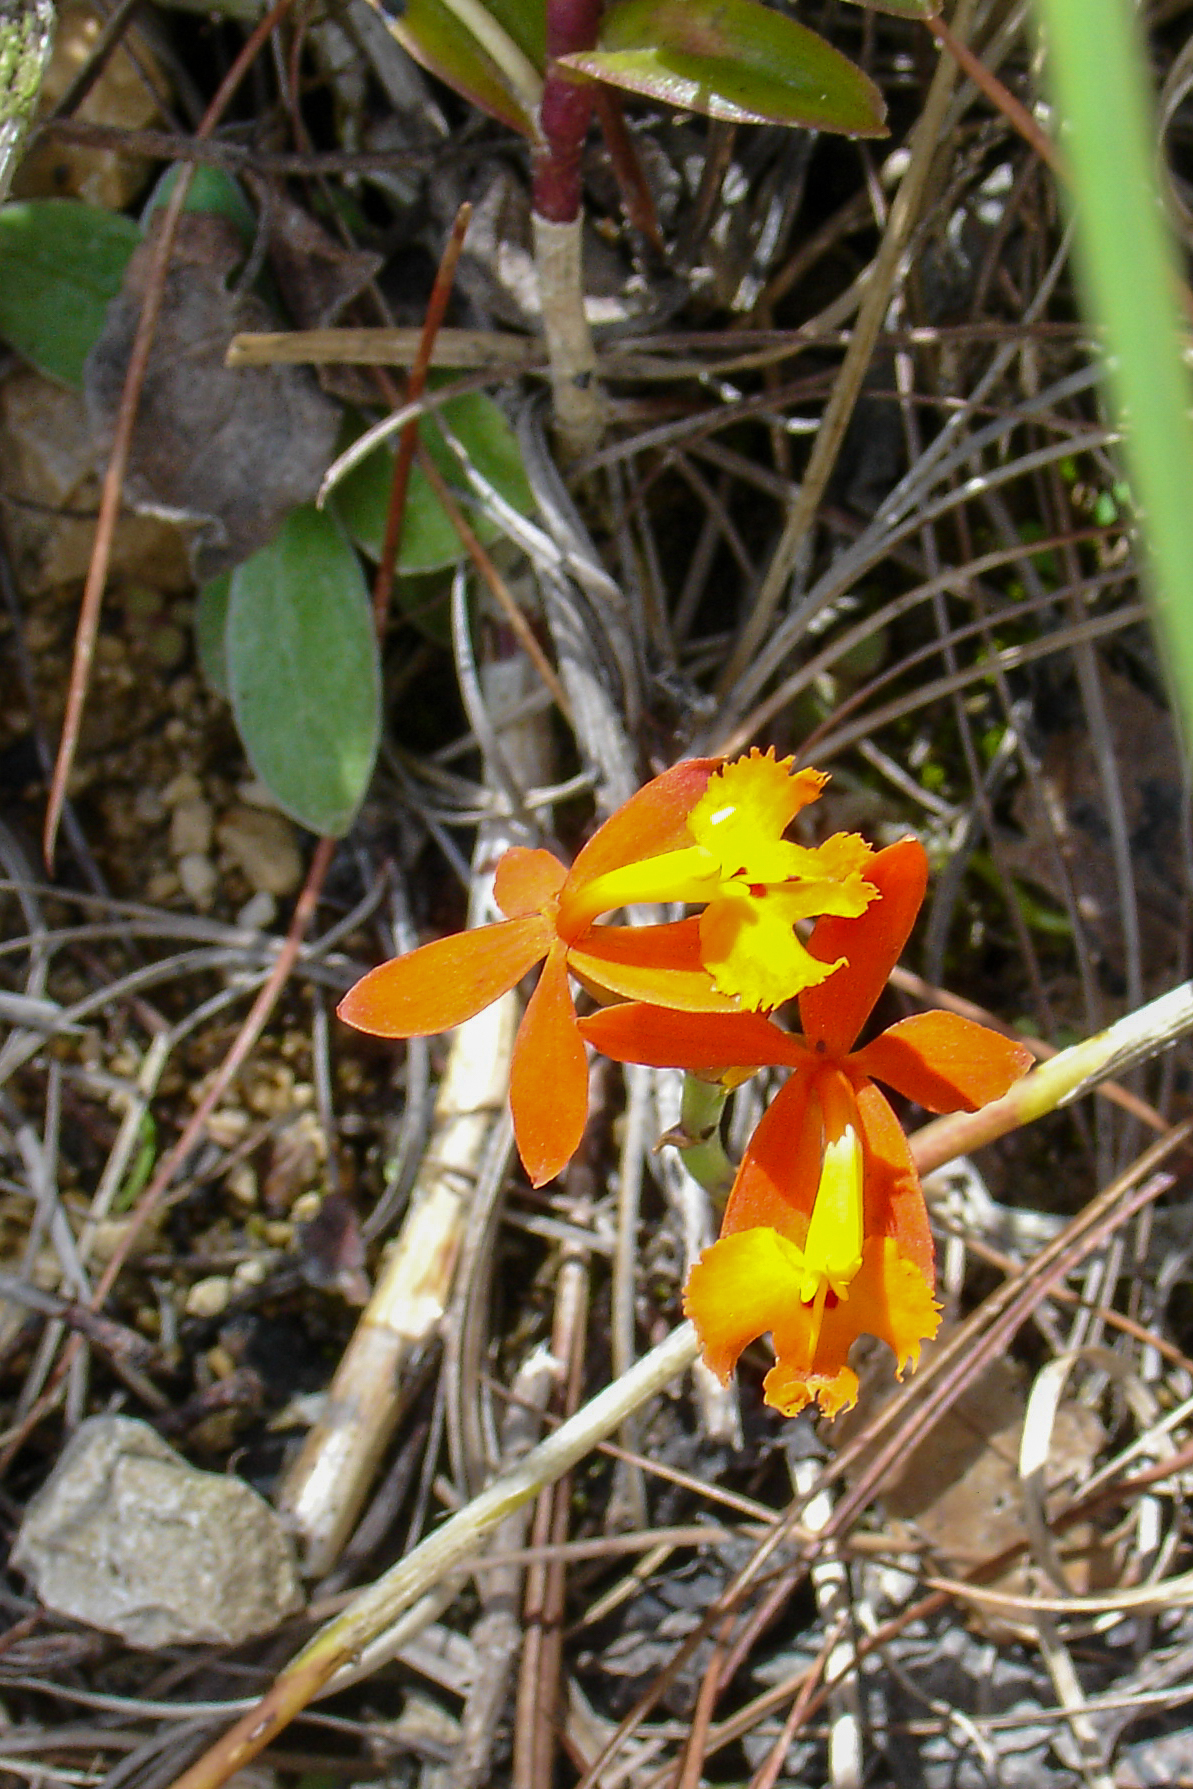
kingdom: Plantae
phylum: Tracheophyta
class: Liliopsida
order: Asparagales
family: Orchidaceae
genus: Epidendrum
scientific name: Epidendrum radicans
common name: Fire star orchid
